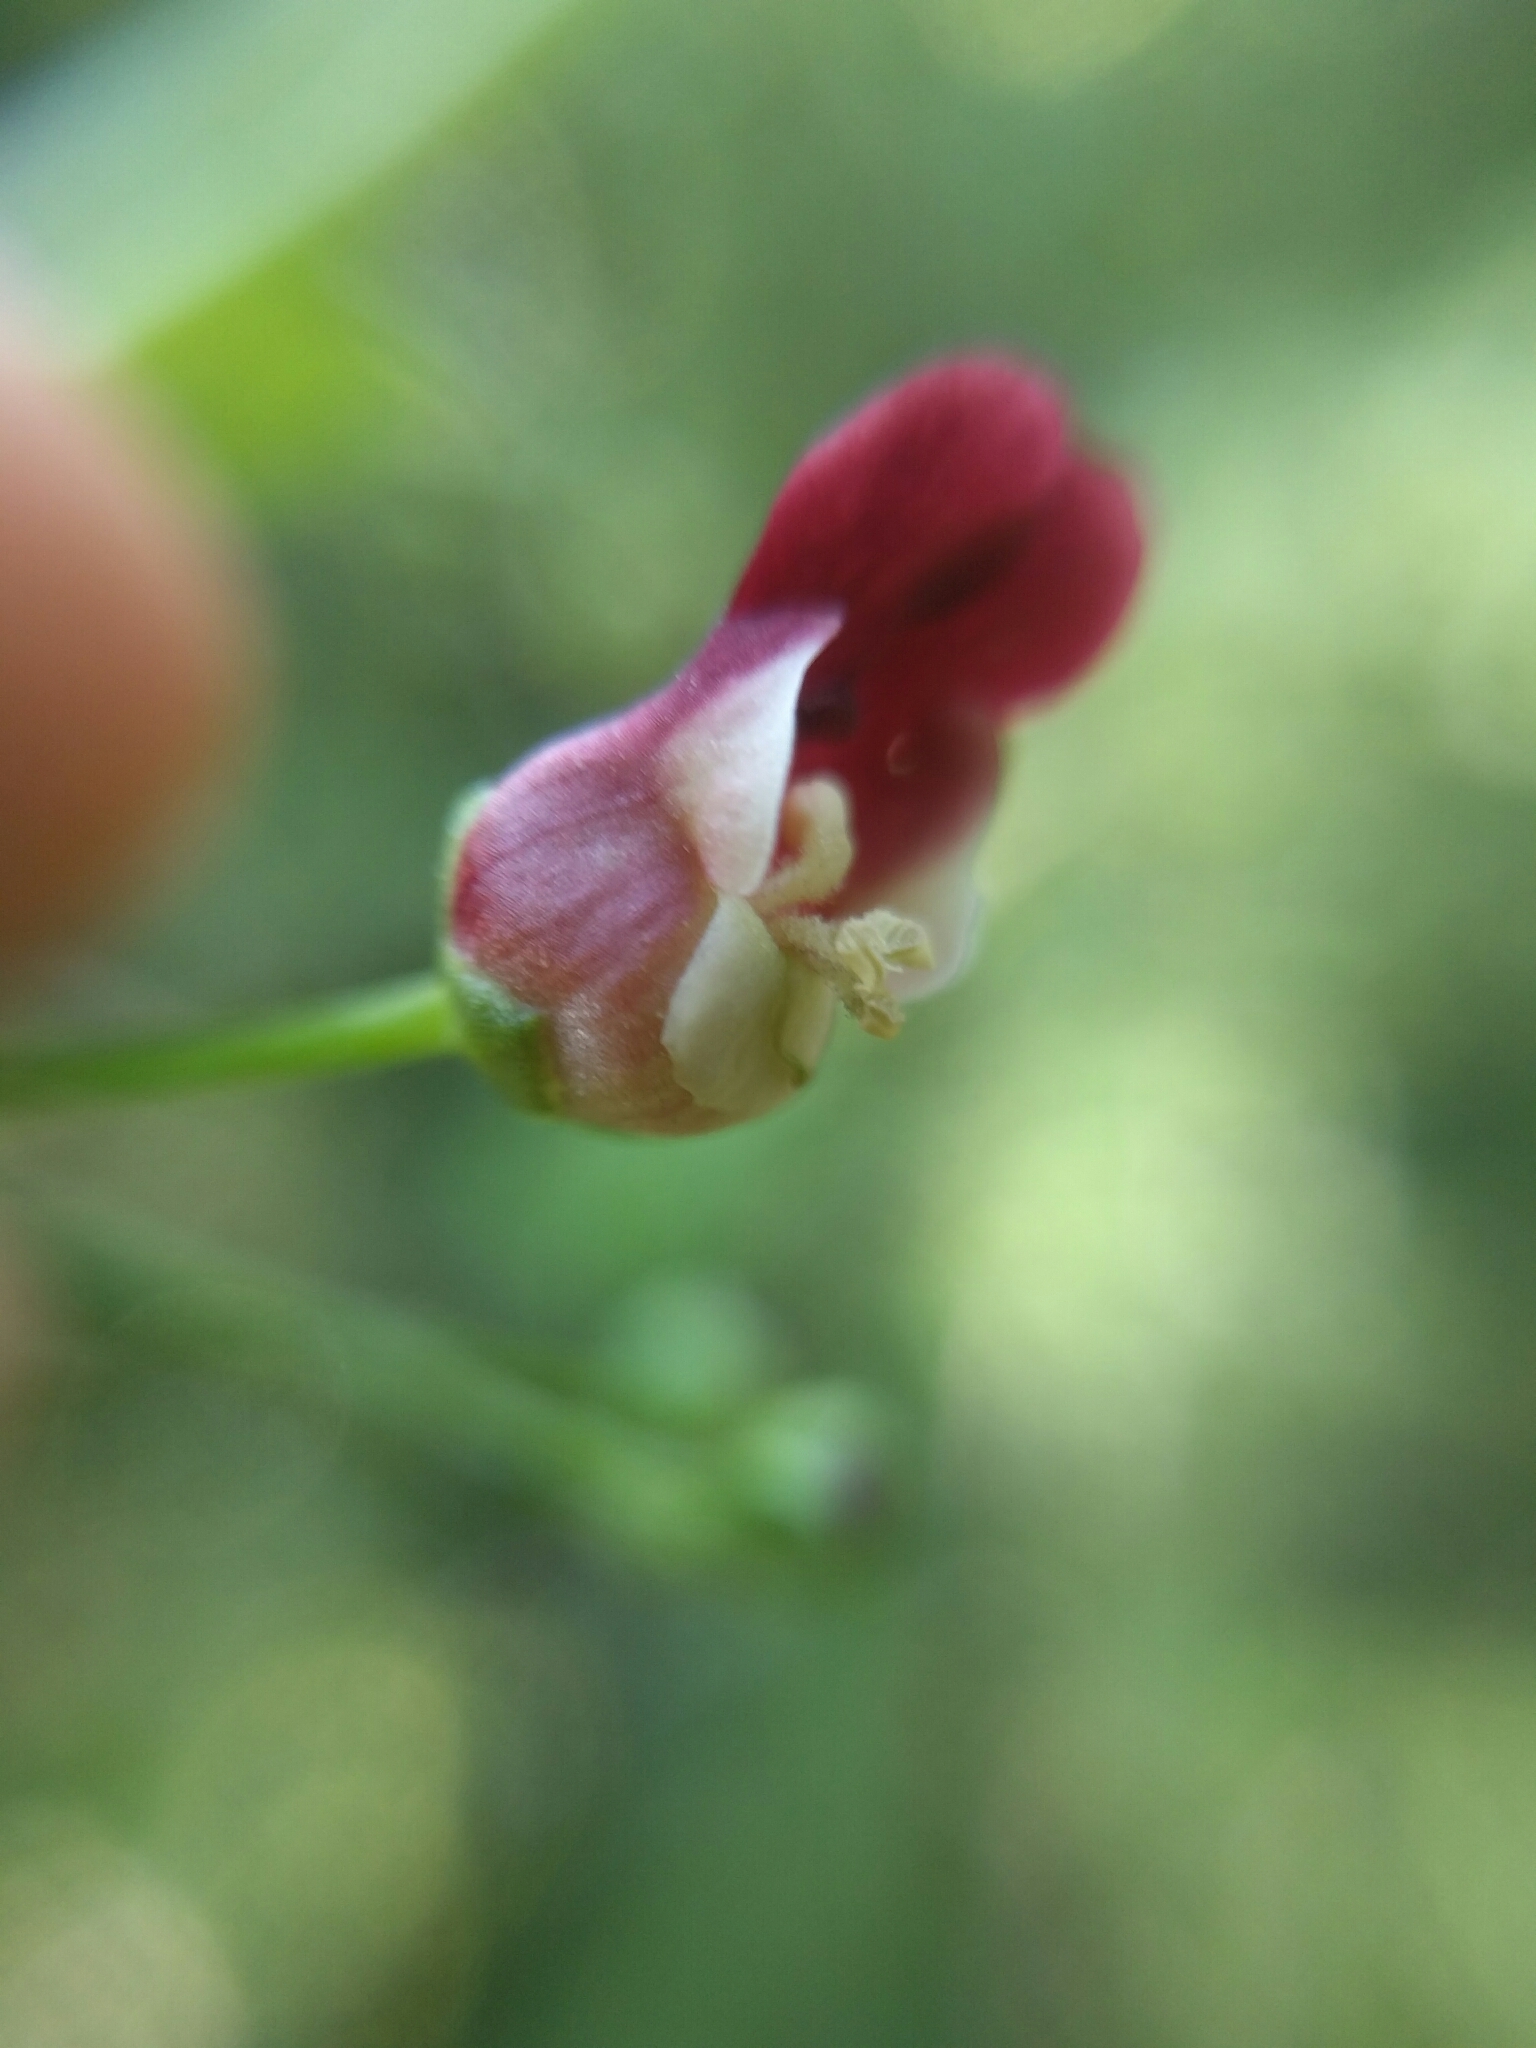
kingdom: Plantae
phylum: Tracheophyta
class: Magnoliopsida
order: Lamiales
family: Scrophulariaceae
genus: Scrophularia
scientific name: Scrophularia californica
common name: California figwort
